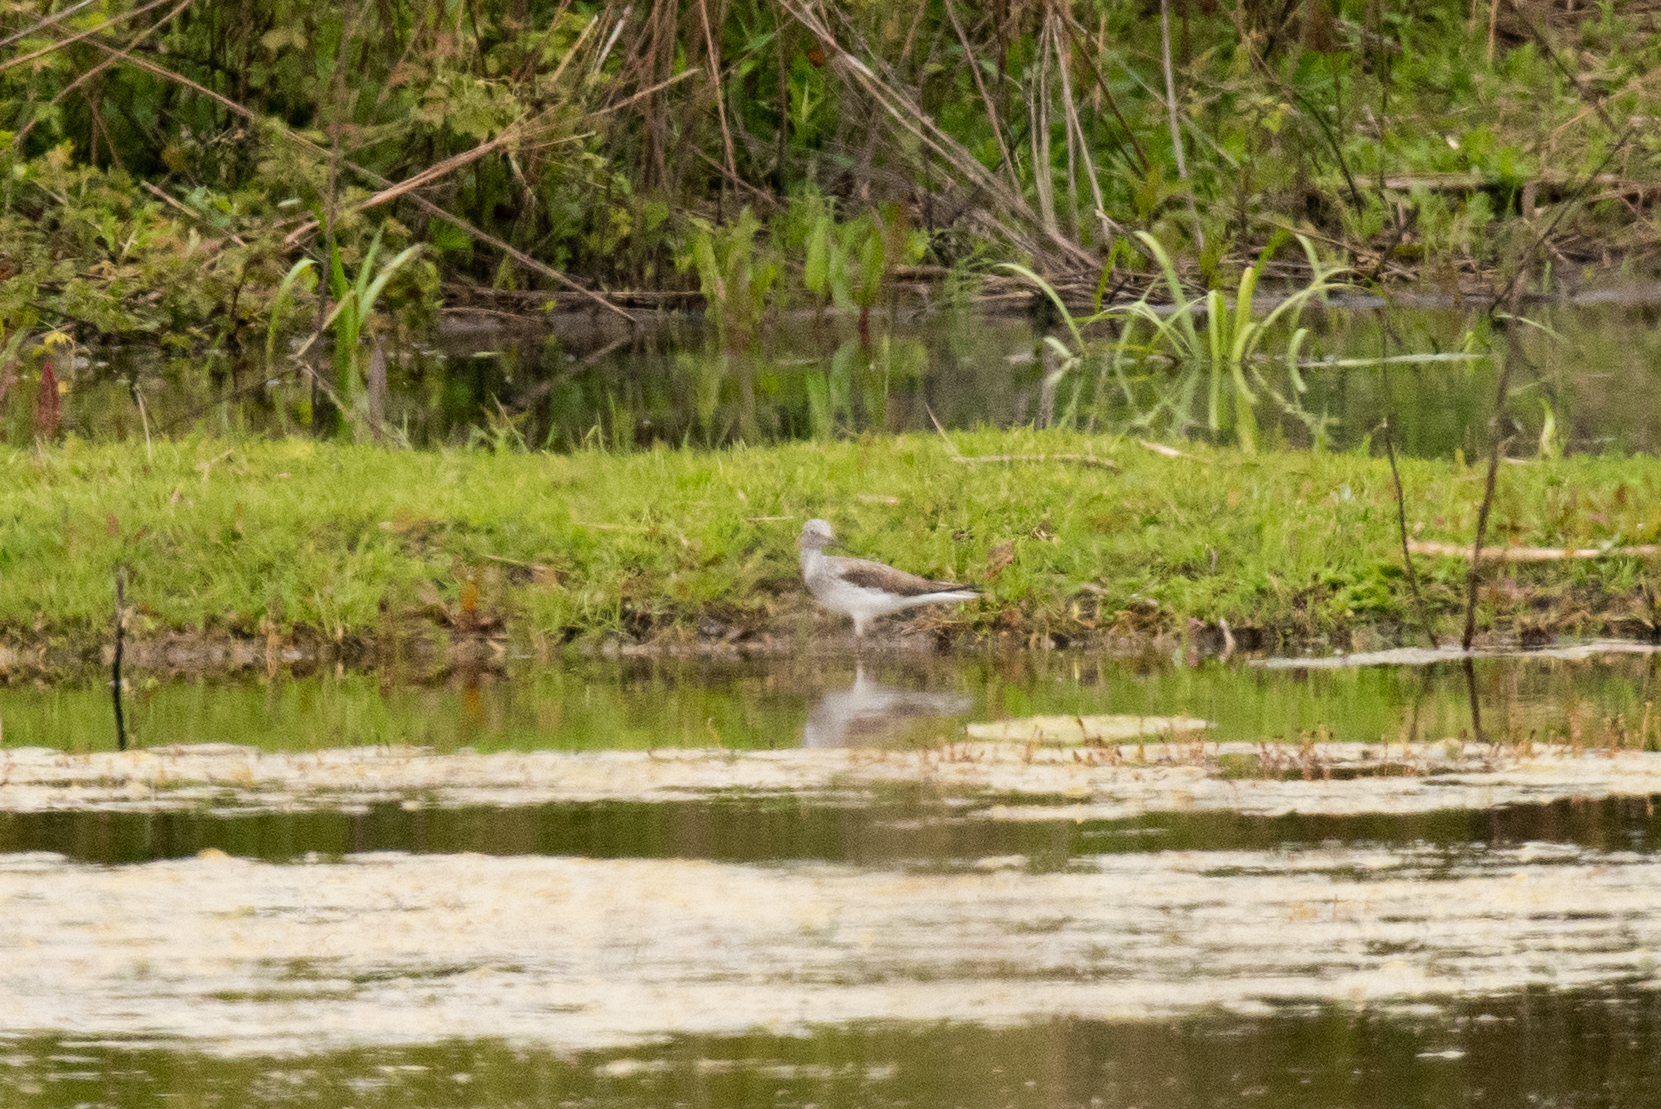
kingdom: Animalia
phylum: Chordata
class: Aves
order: Charadriiformes
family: Scolopacidae
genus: Tringa
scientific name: Tringa nebularia
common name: Common greenshank
